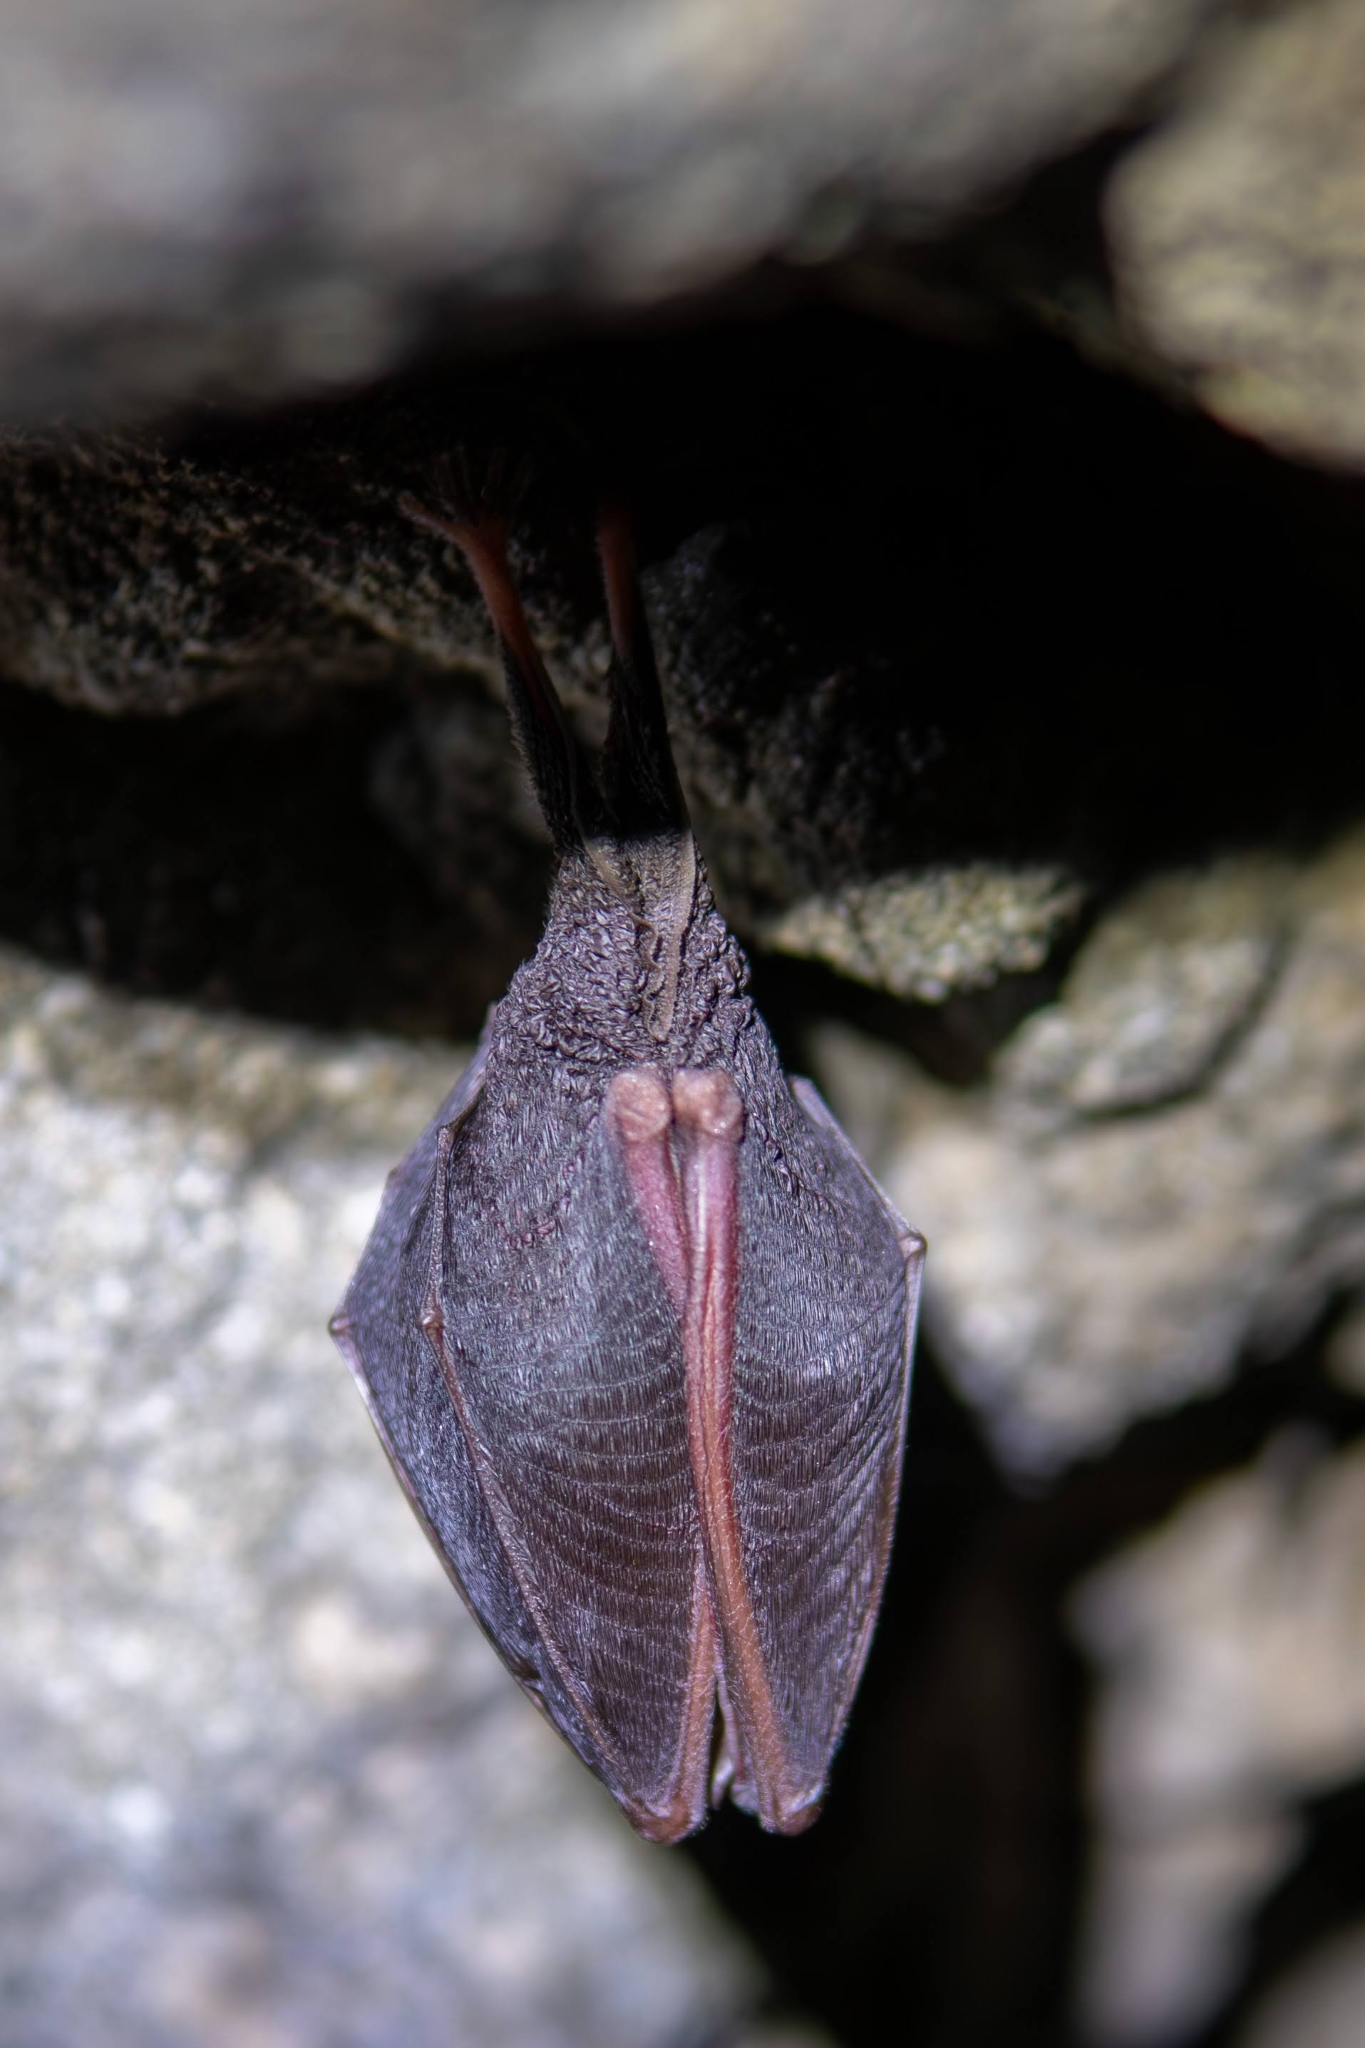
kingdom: Animalia
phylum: Chordata
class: Mammalia
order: Chiroptera
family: Rhinolophidae
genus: Rhinolophus
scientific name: Rhinolophus hipposideros
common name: Lesser horseshoe bat
